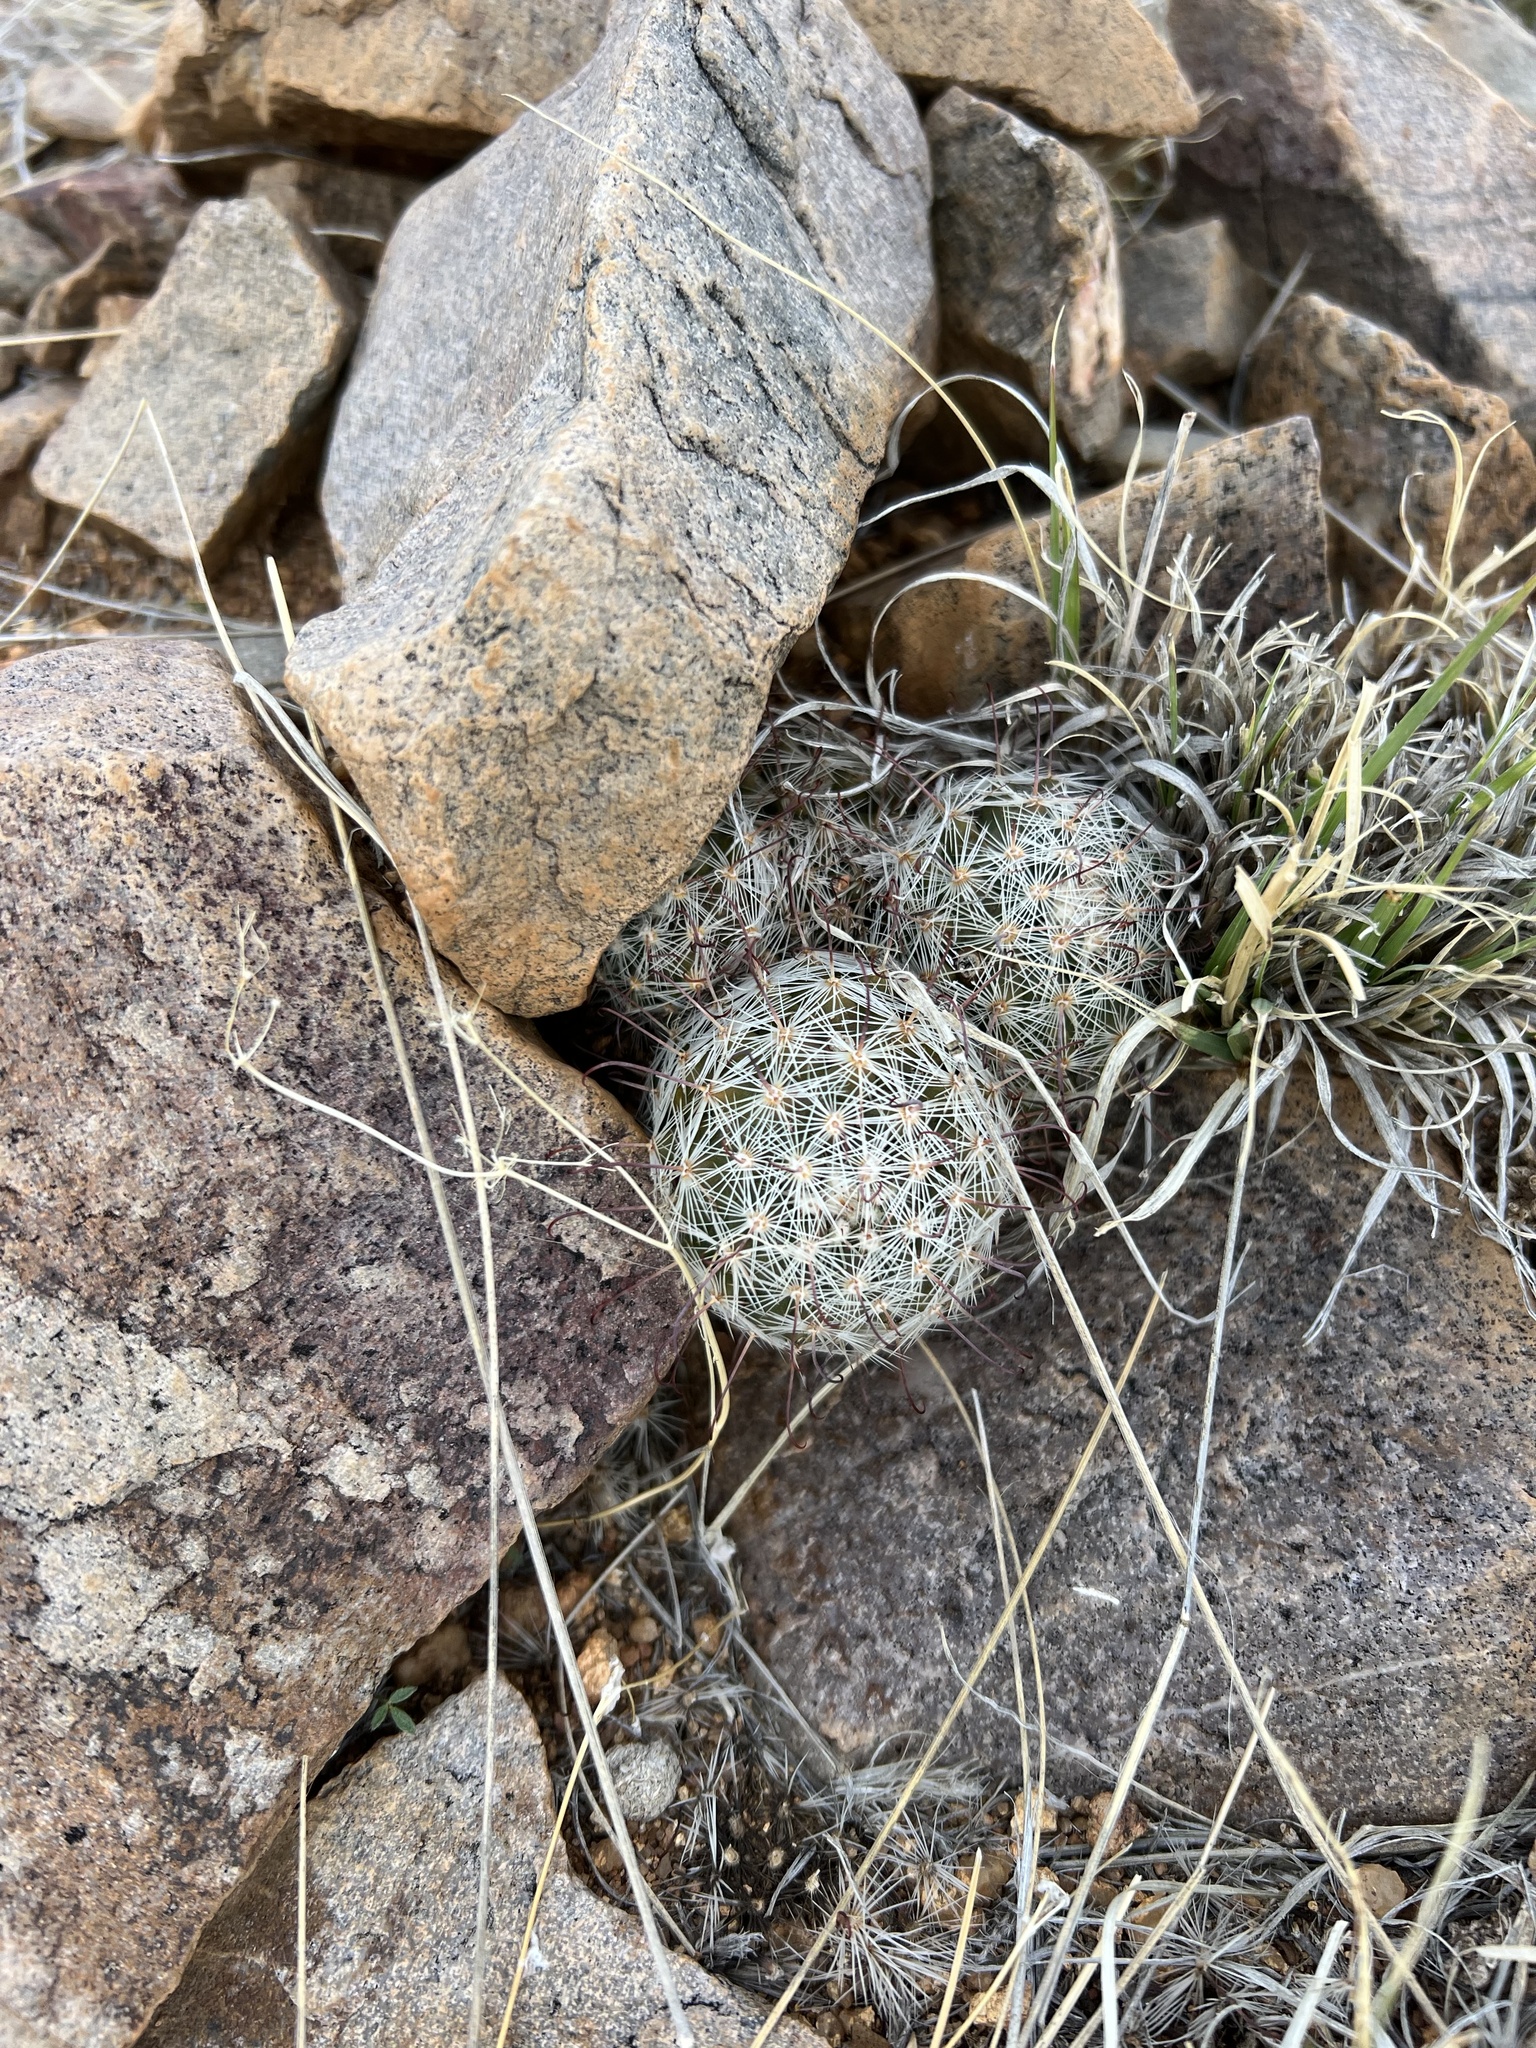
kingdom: Plantae
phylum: Tracheophyta
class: Magnoliopsida
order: Caryophyllales
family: Cactaceae
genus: Cochemiea
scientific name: Cochemiea grahamii
